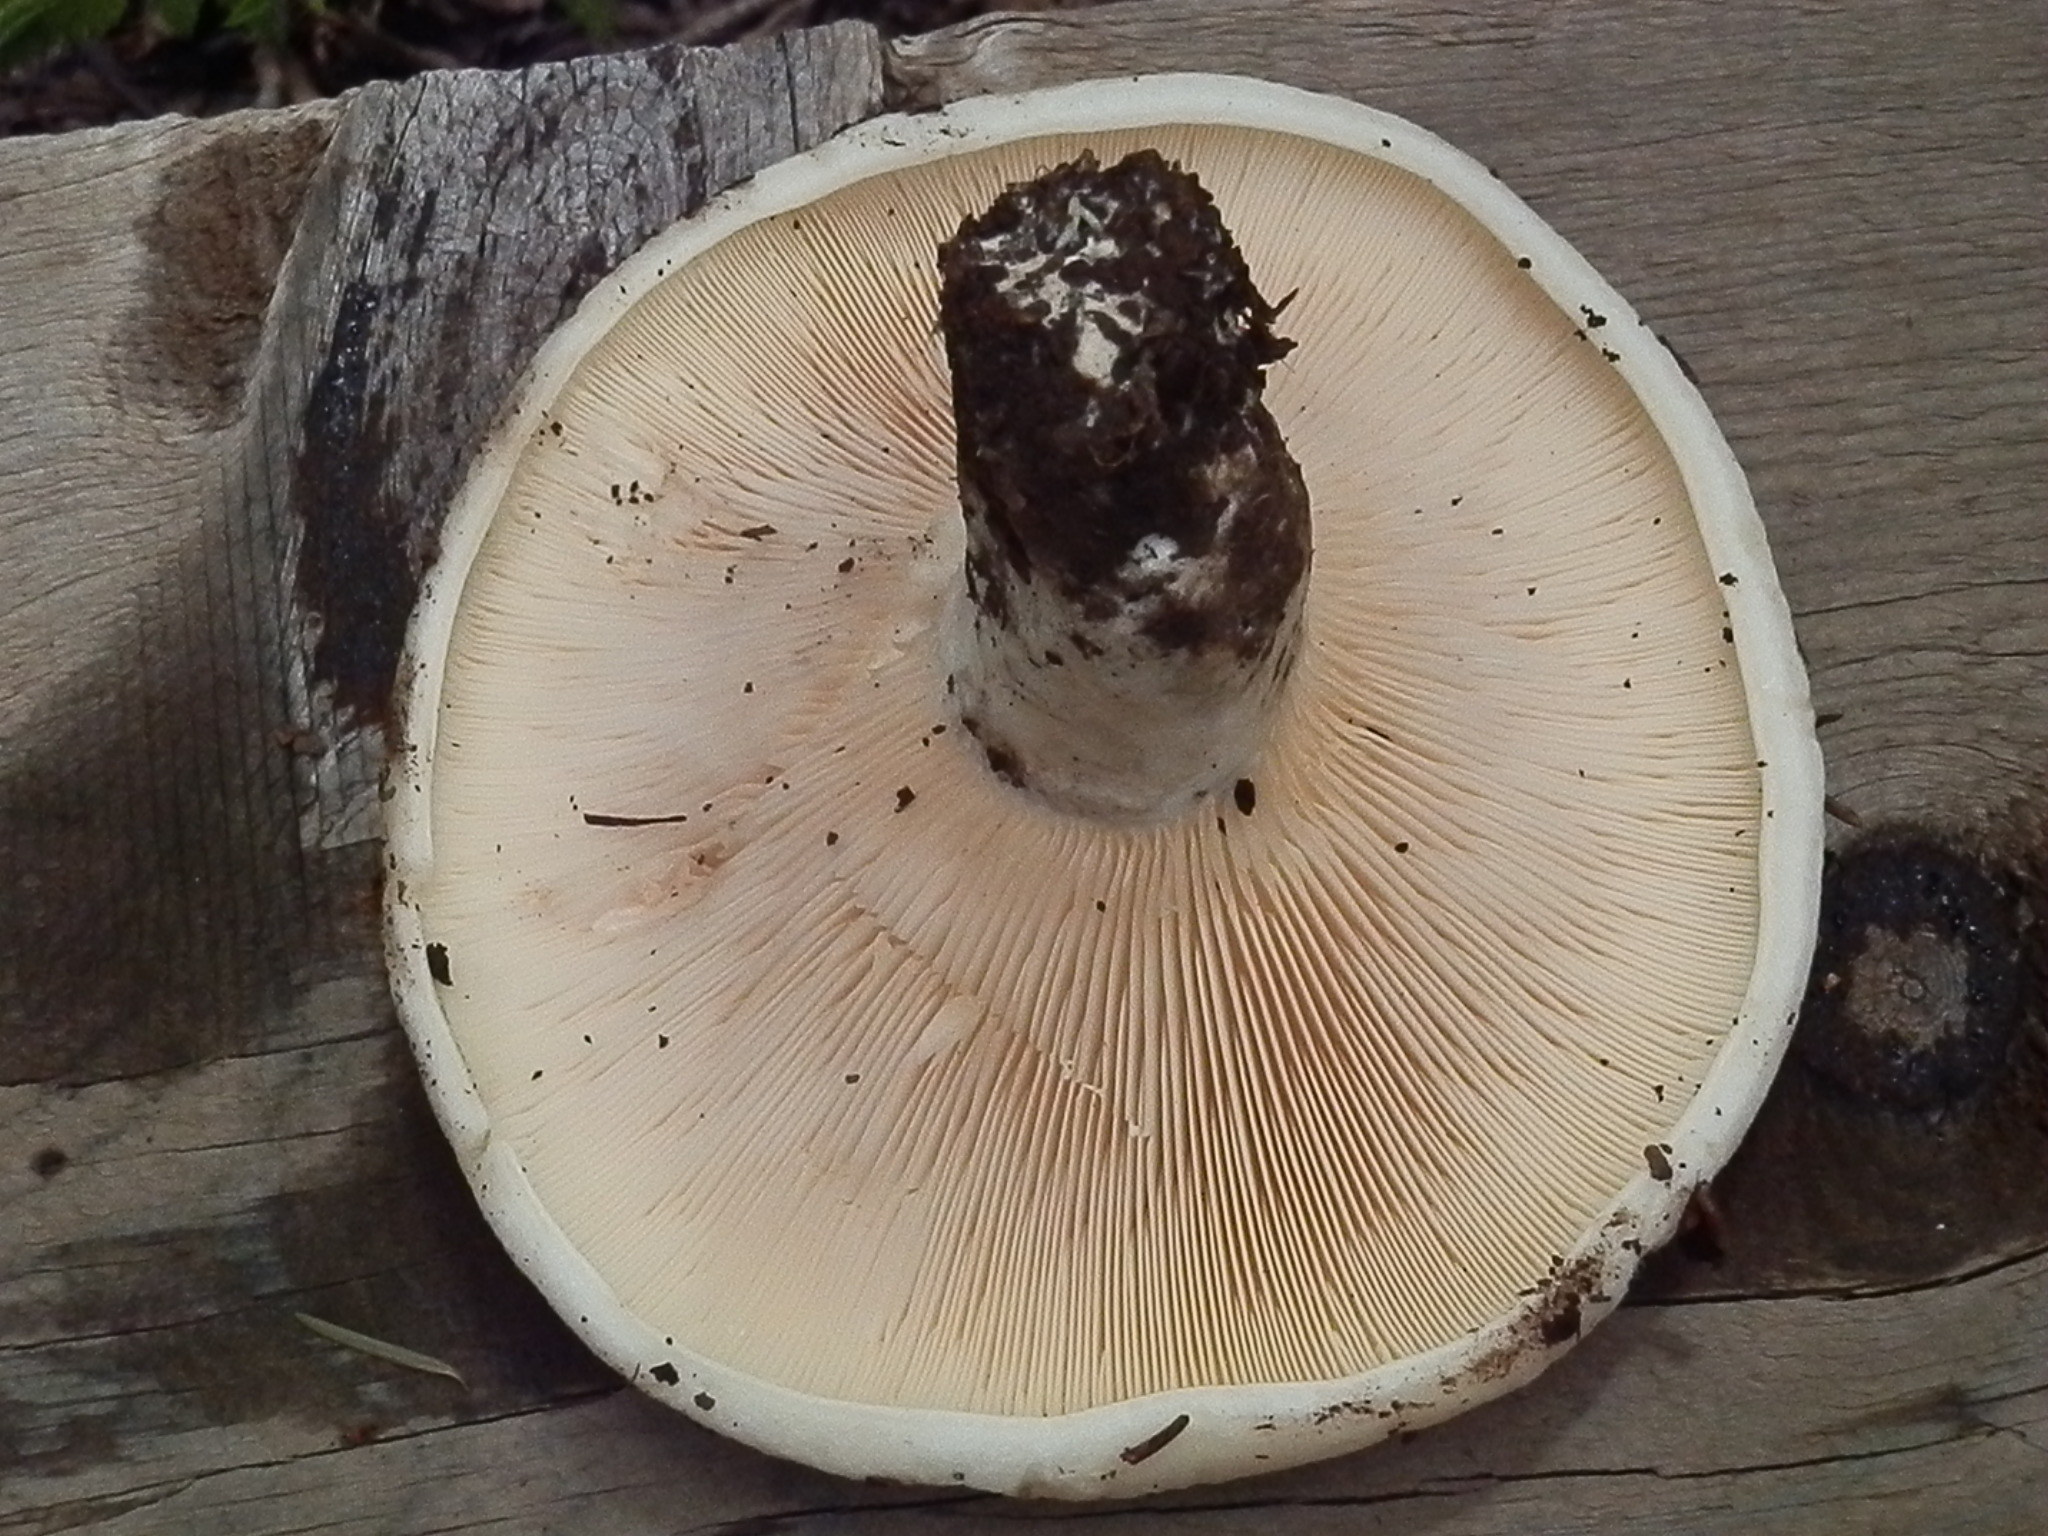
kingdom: Fungi
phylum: Basidiomycota
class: Agaricomycetes
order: Russulales
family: Russulaceae
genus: Lactarius
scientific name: Lactarius controversus
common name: Blushing milkcap
